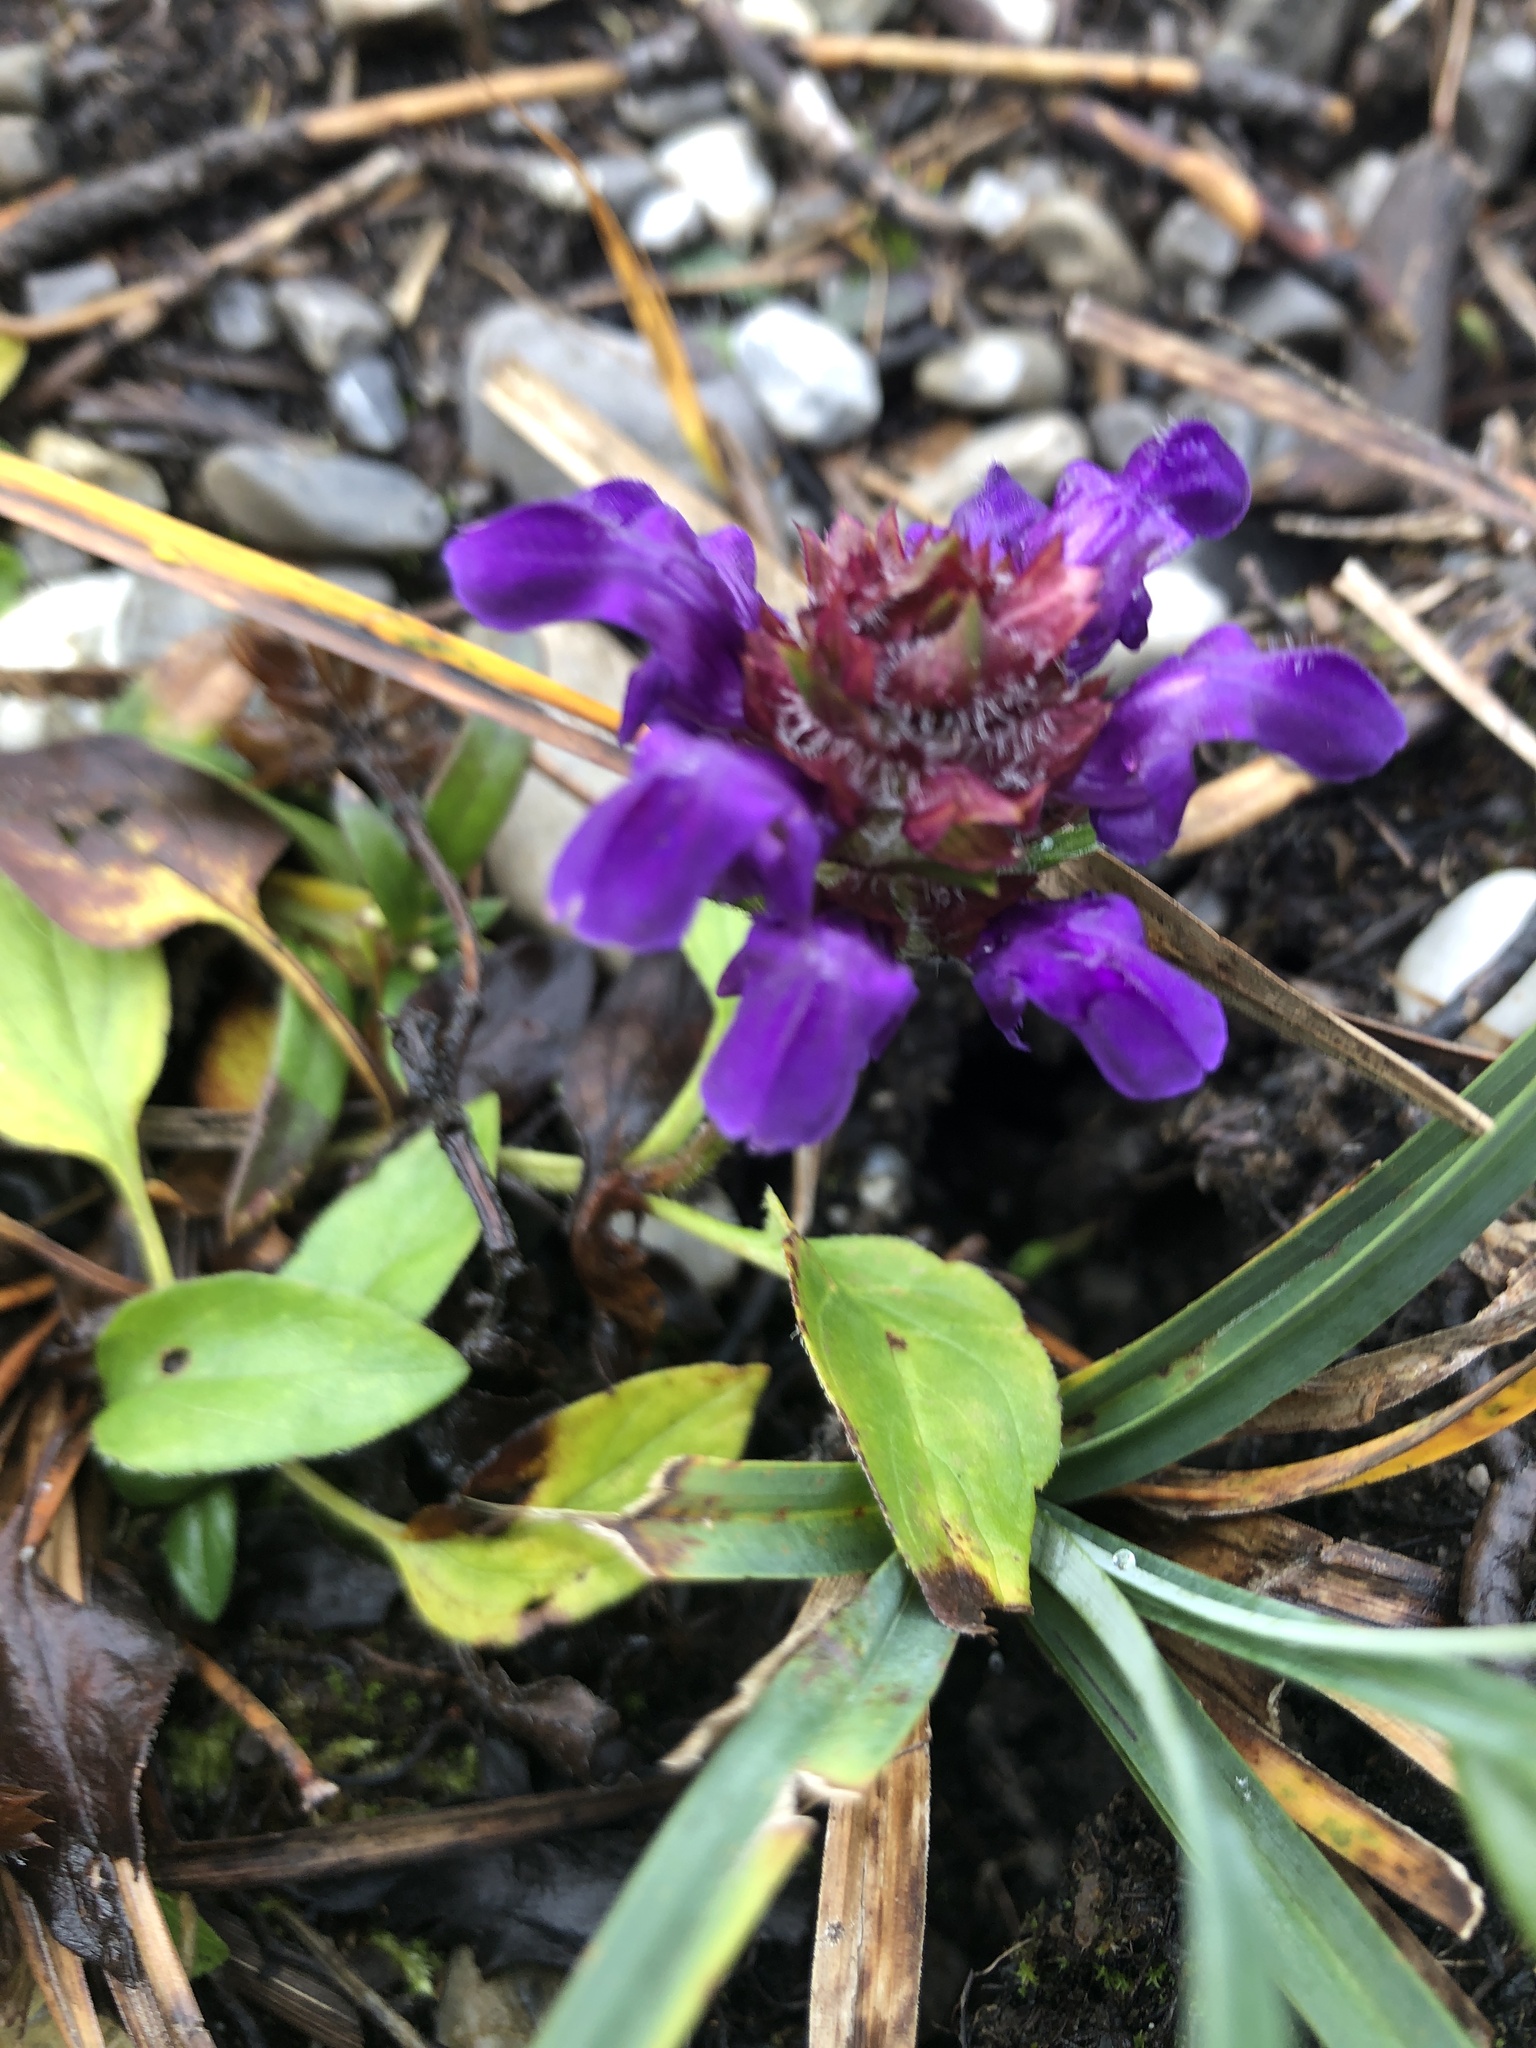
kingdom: Plantae
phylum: Tracheophyta
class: Magnoliopsida
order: Lamiales
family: Lamiaceae
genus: Prunella
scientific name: Prunella grandiflora
